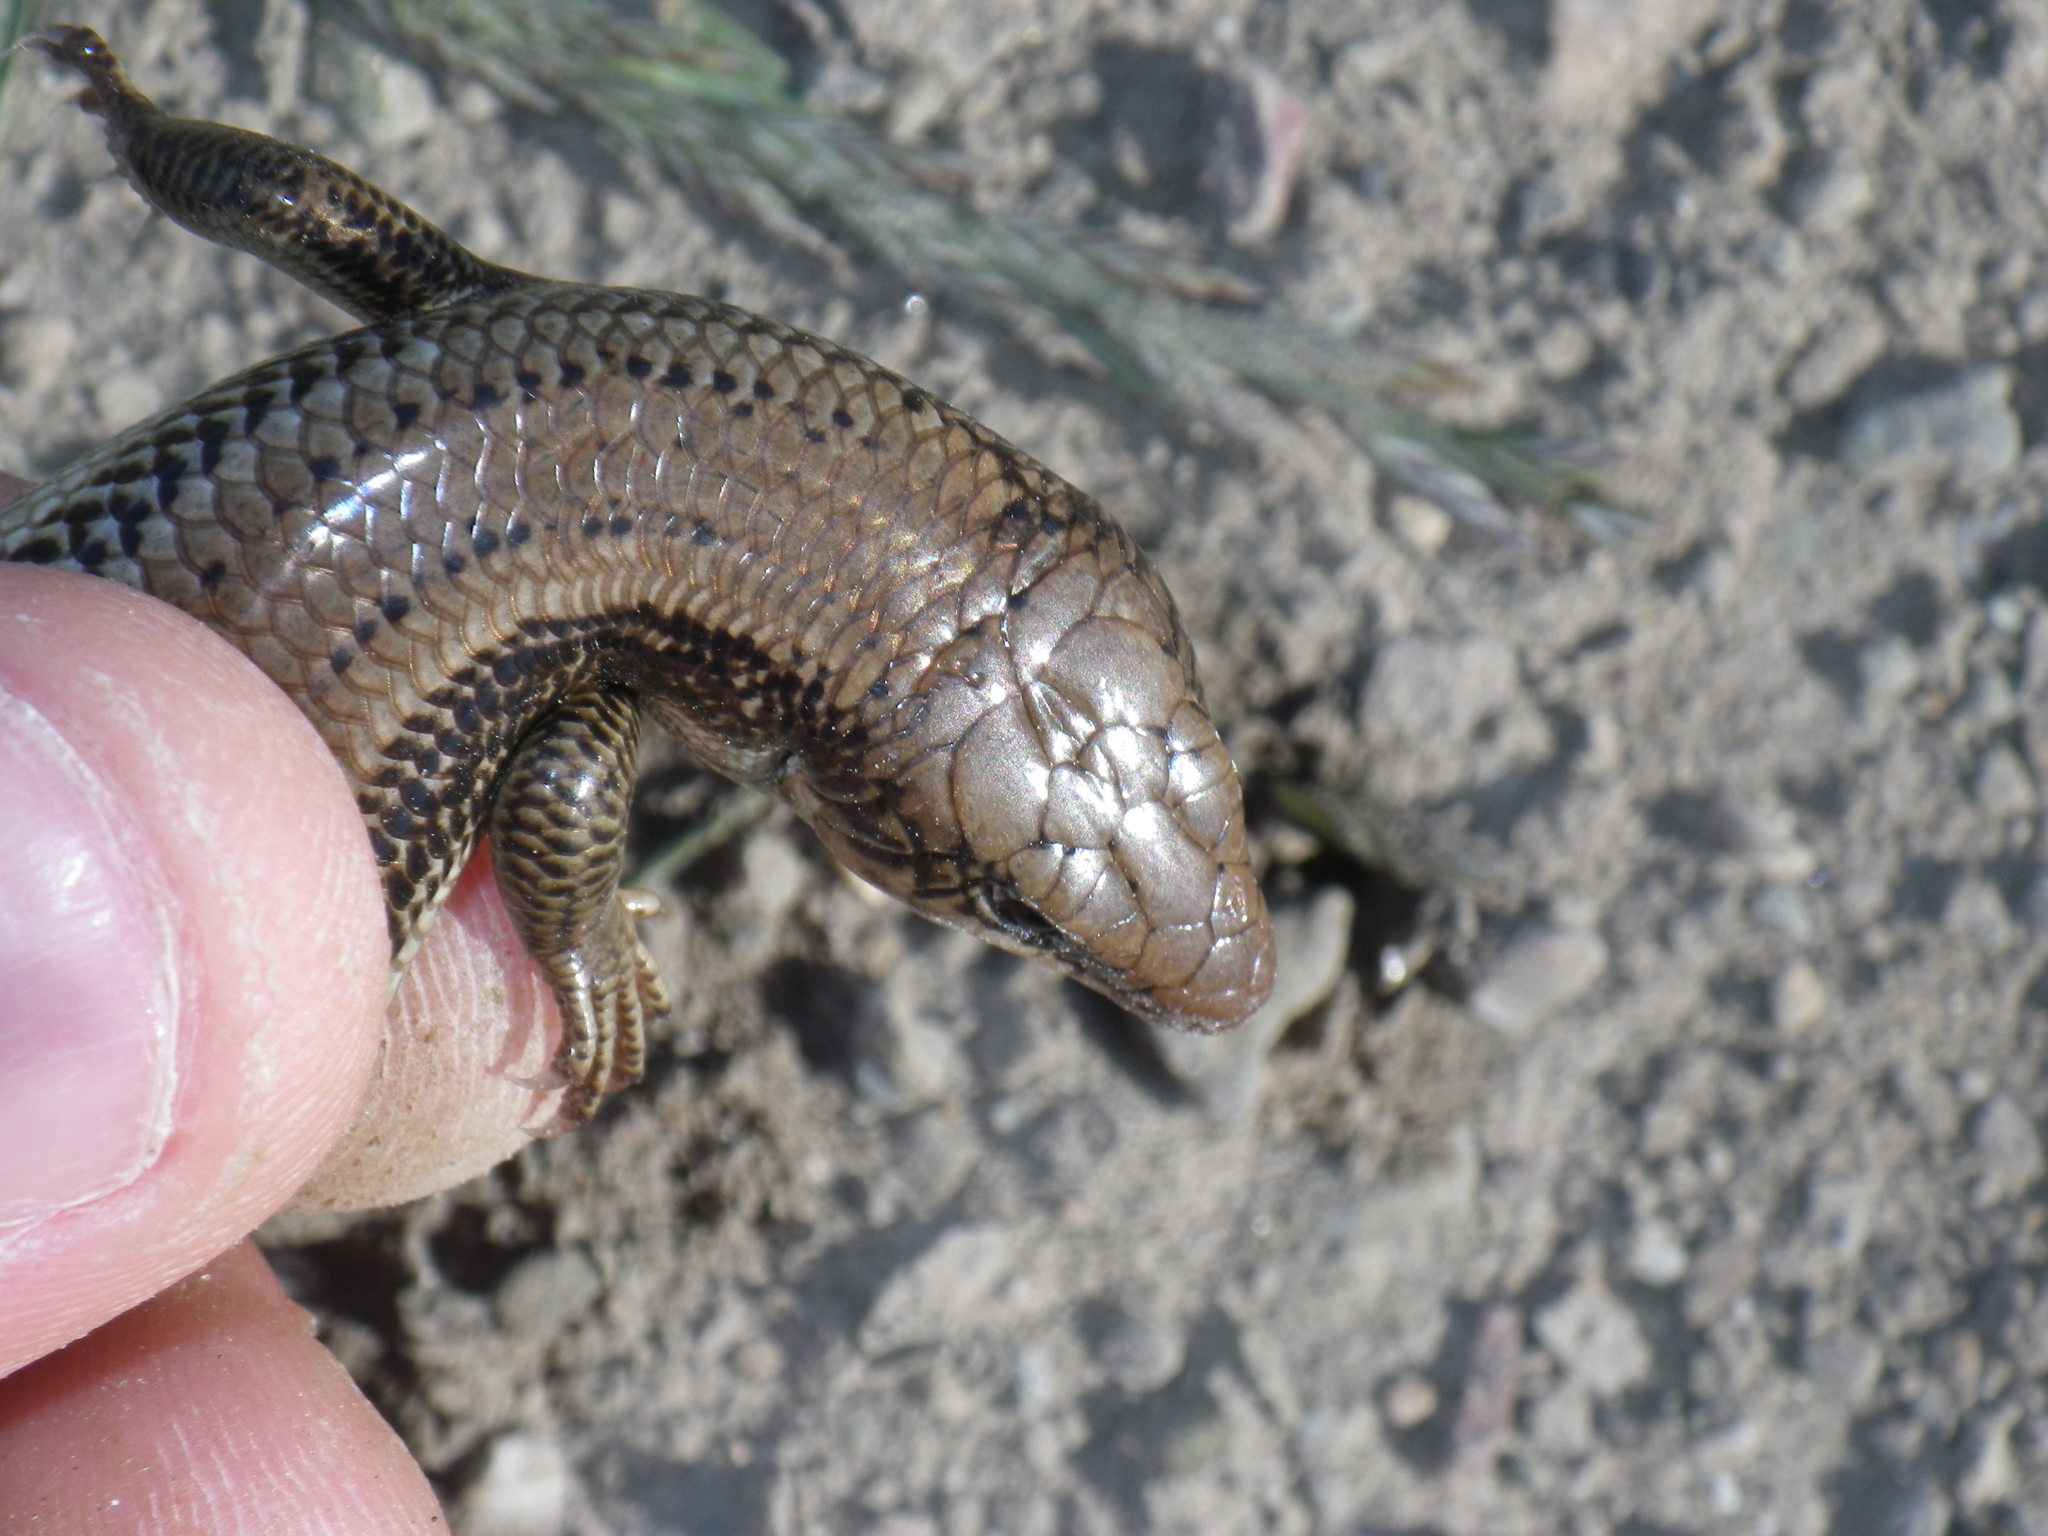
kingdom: Animalia
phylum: Chordata
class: Squamata
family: Scincidae
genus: Plestiodon
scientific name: Plestiodon gilberti
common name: Gilbert's skink
